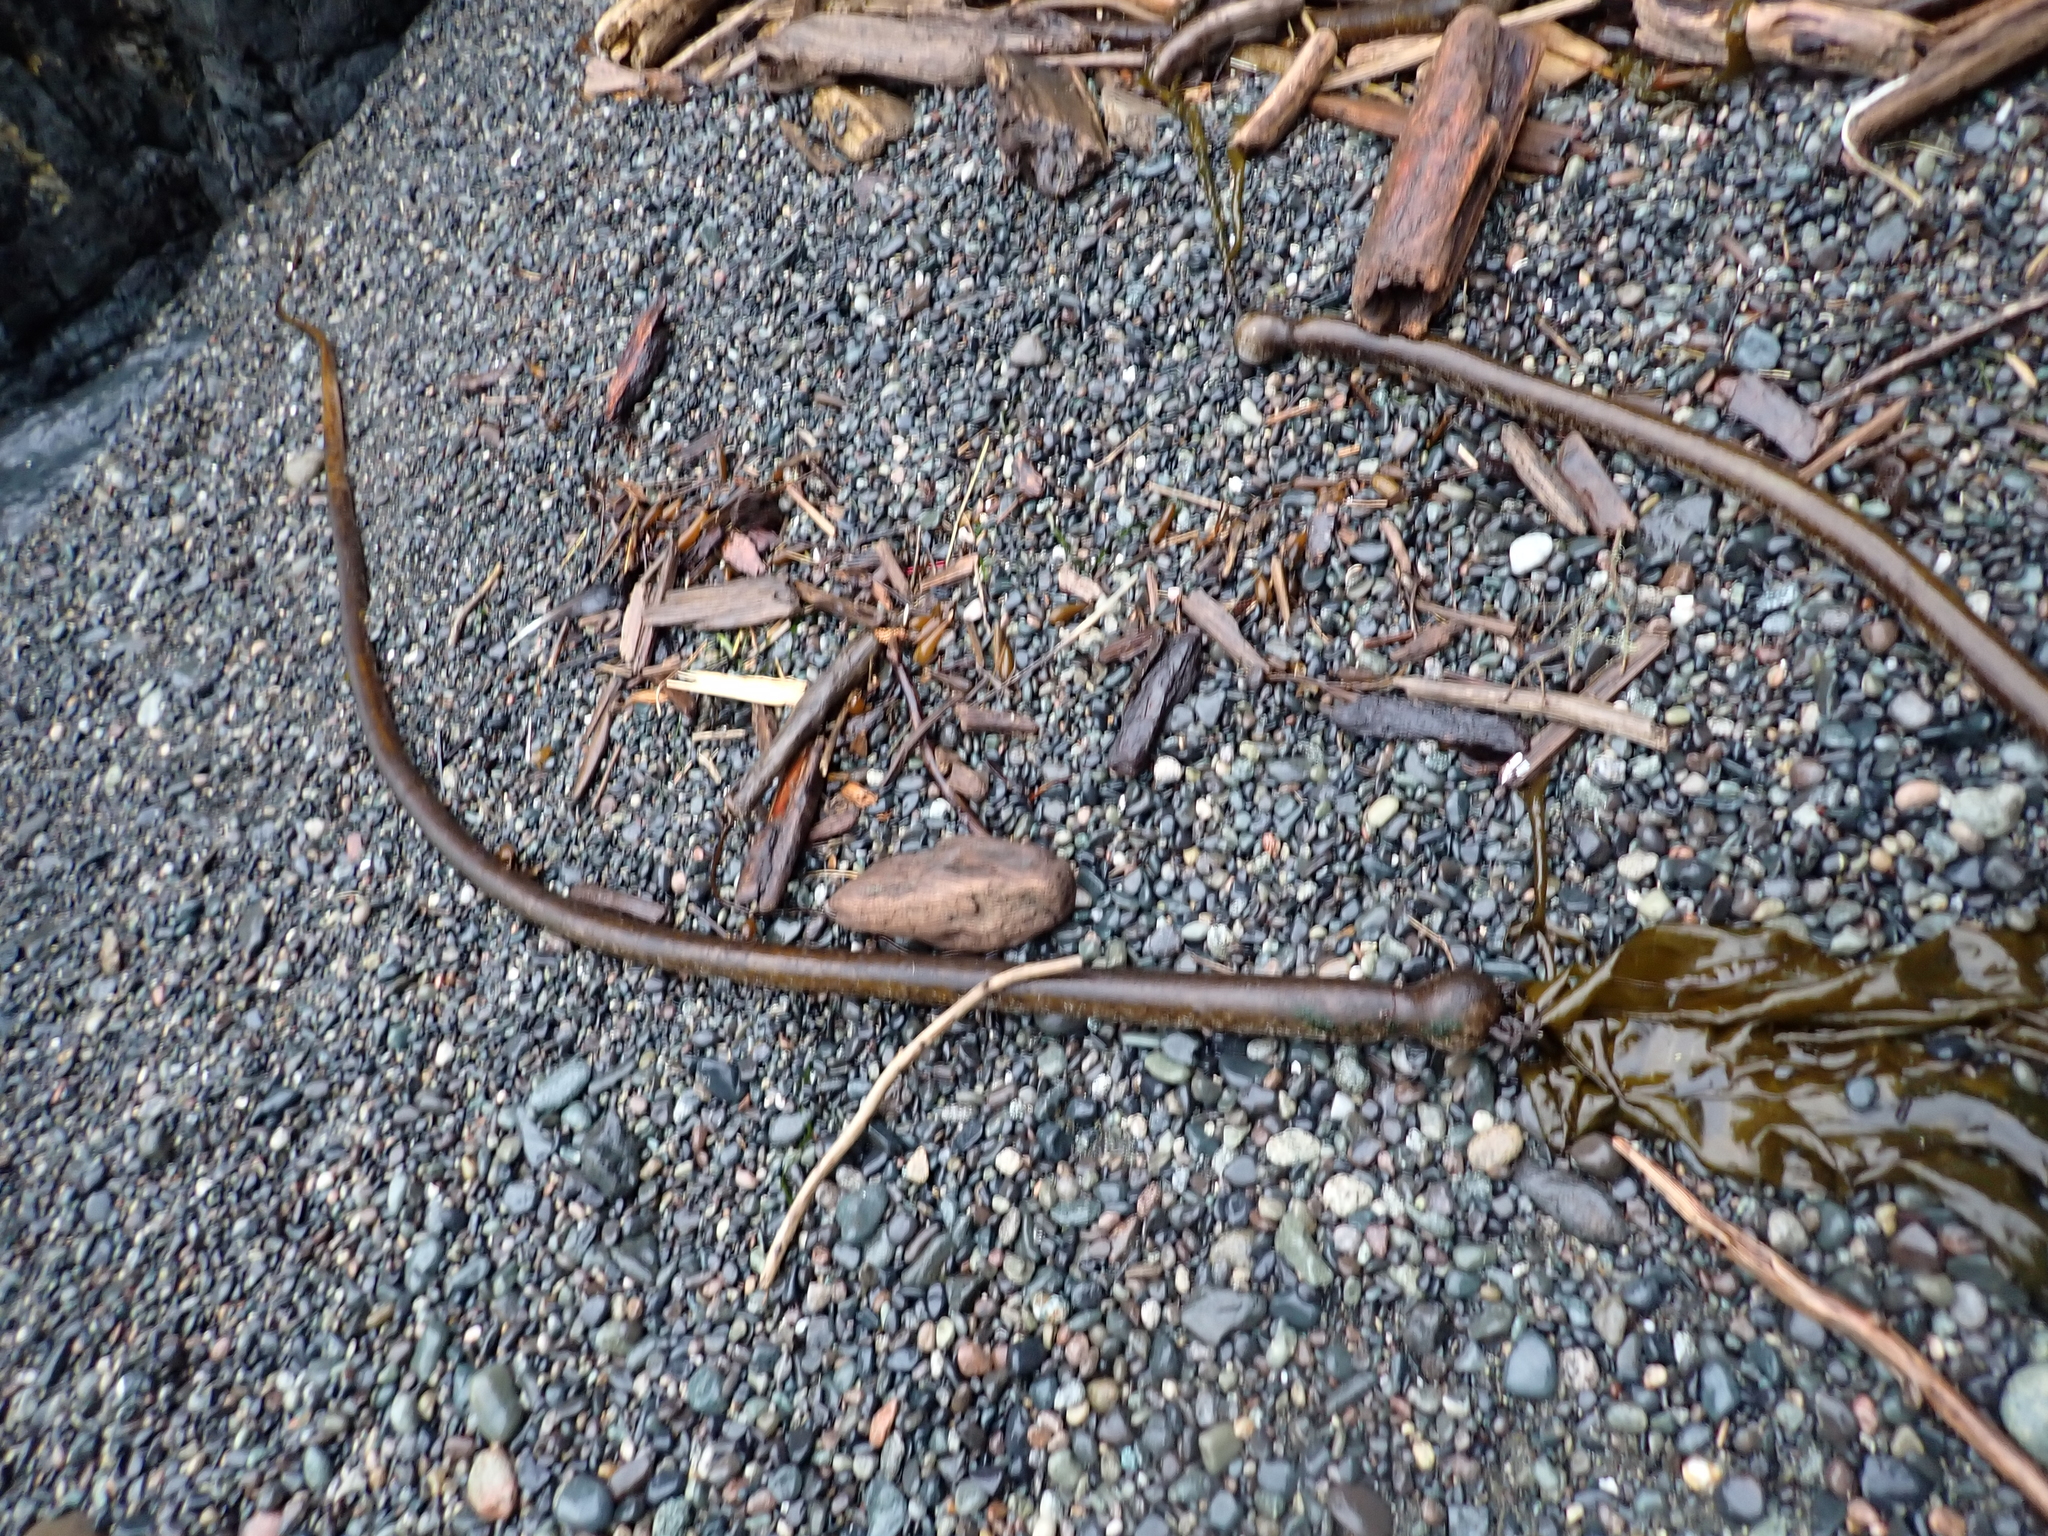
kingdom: Chromista
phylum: Ochrophyta
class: Phaeophyceae
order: Laminariales
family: Laminariaceae
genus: Nereocystis
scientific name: Nereocystis luetkeana
